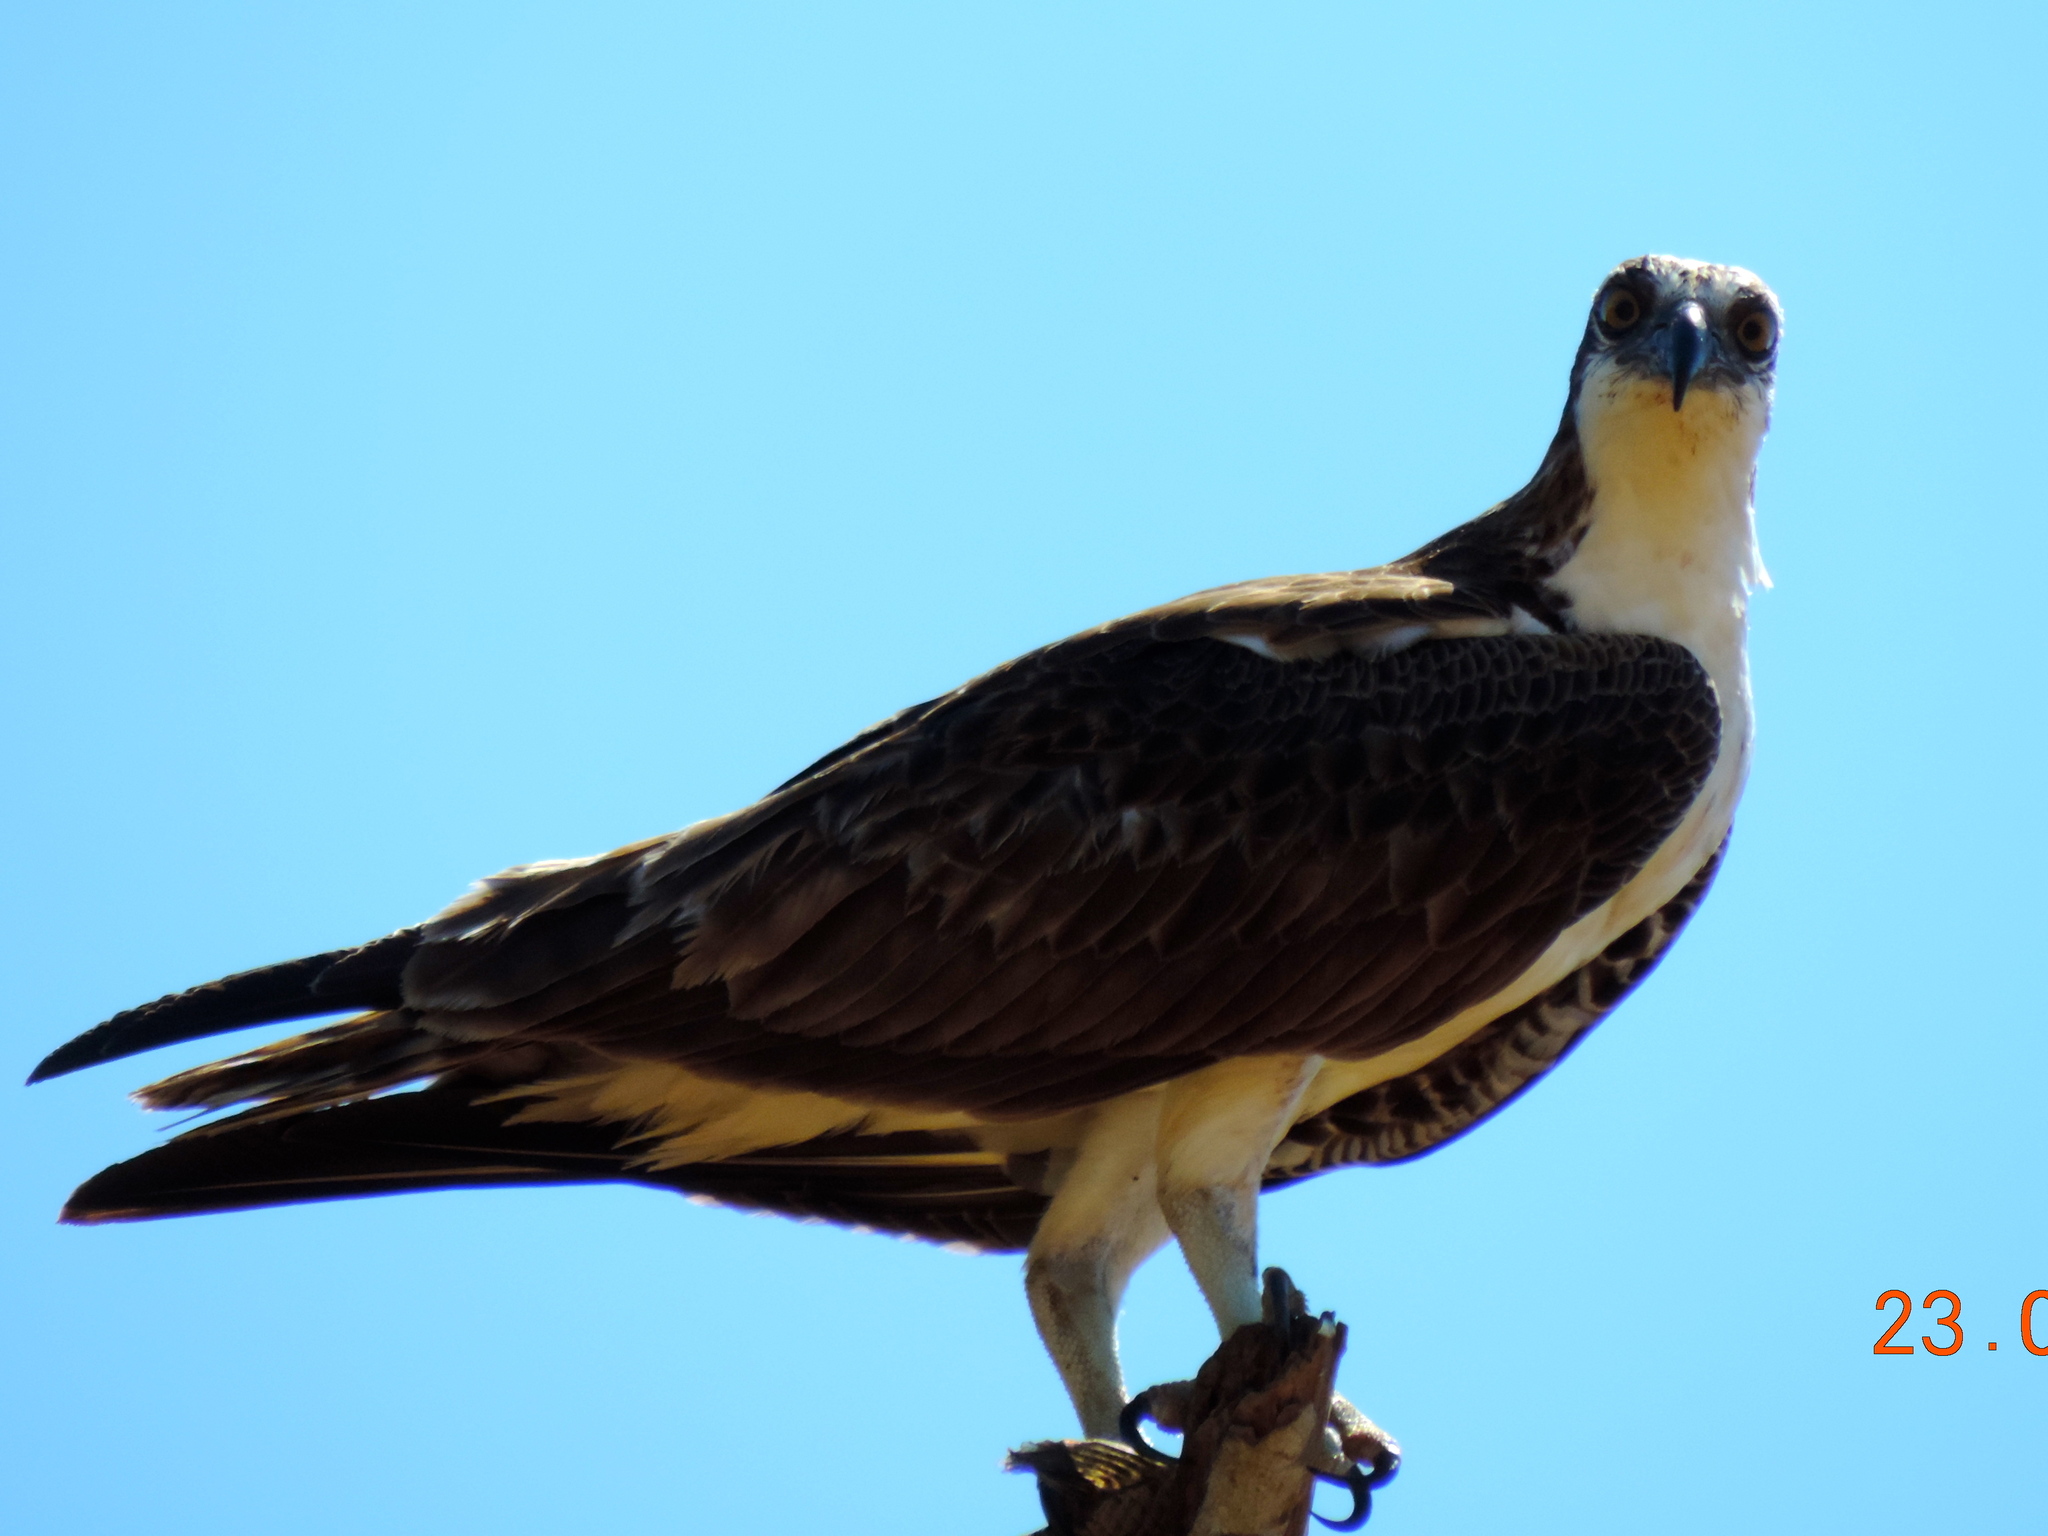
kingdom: Animalia
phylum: Chordata
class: Aves
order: Accipitriformes
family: Pandionidae
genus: Pandion
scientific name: Pandion haliaetus
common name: Osprey
